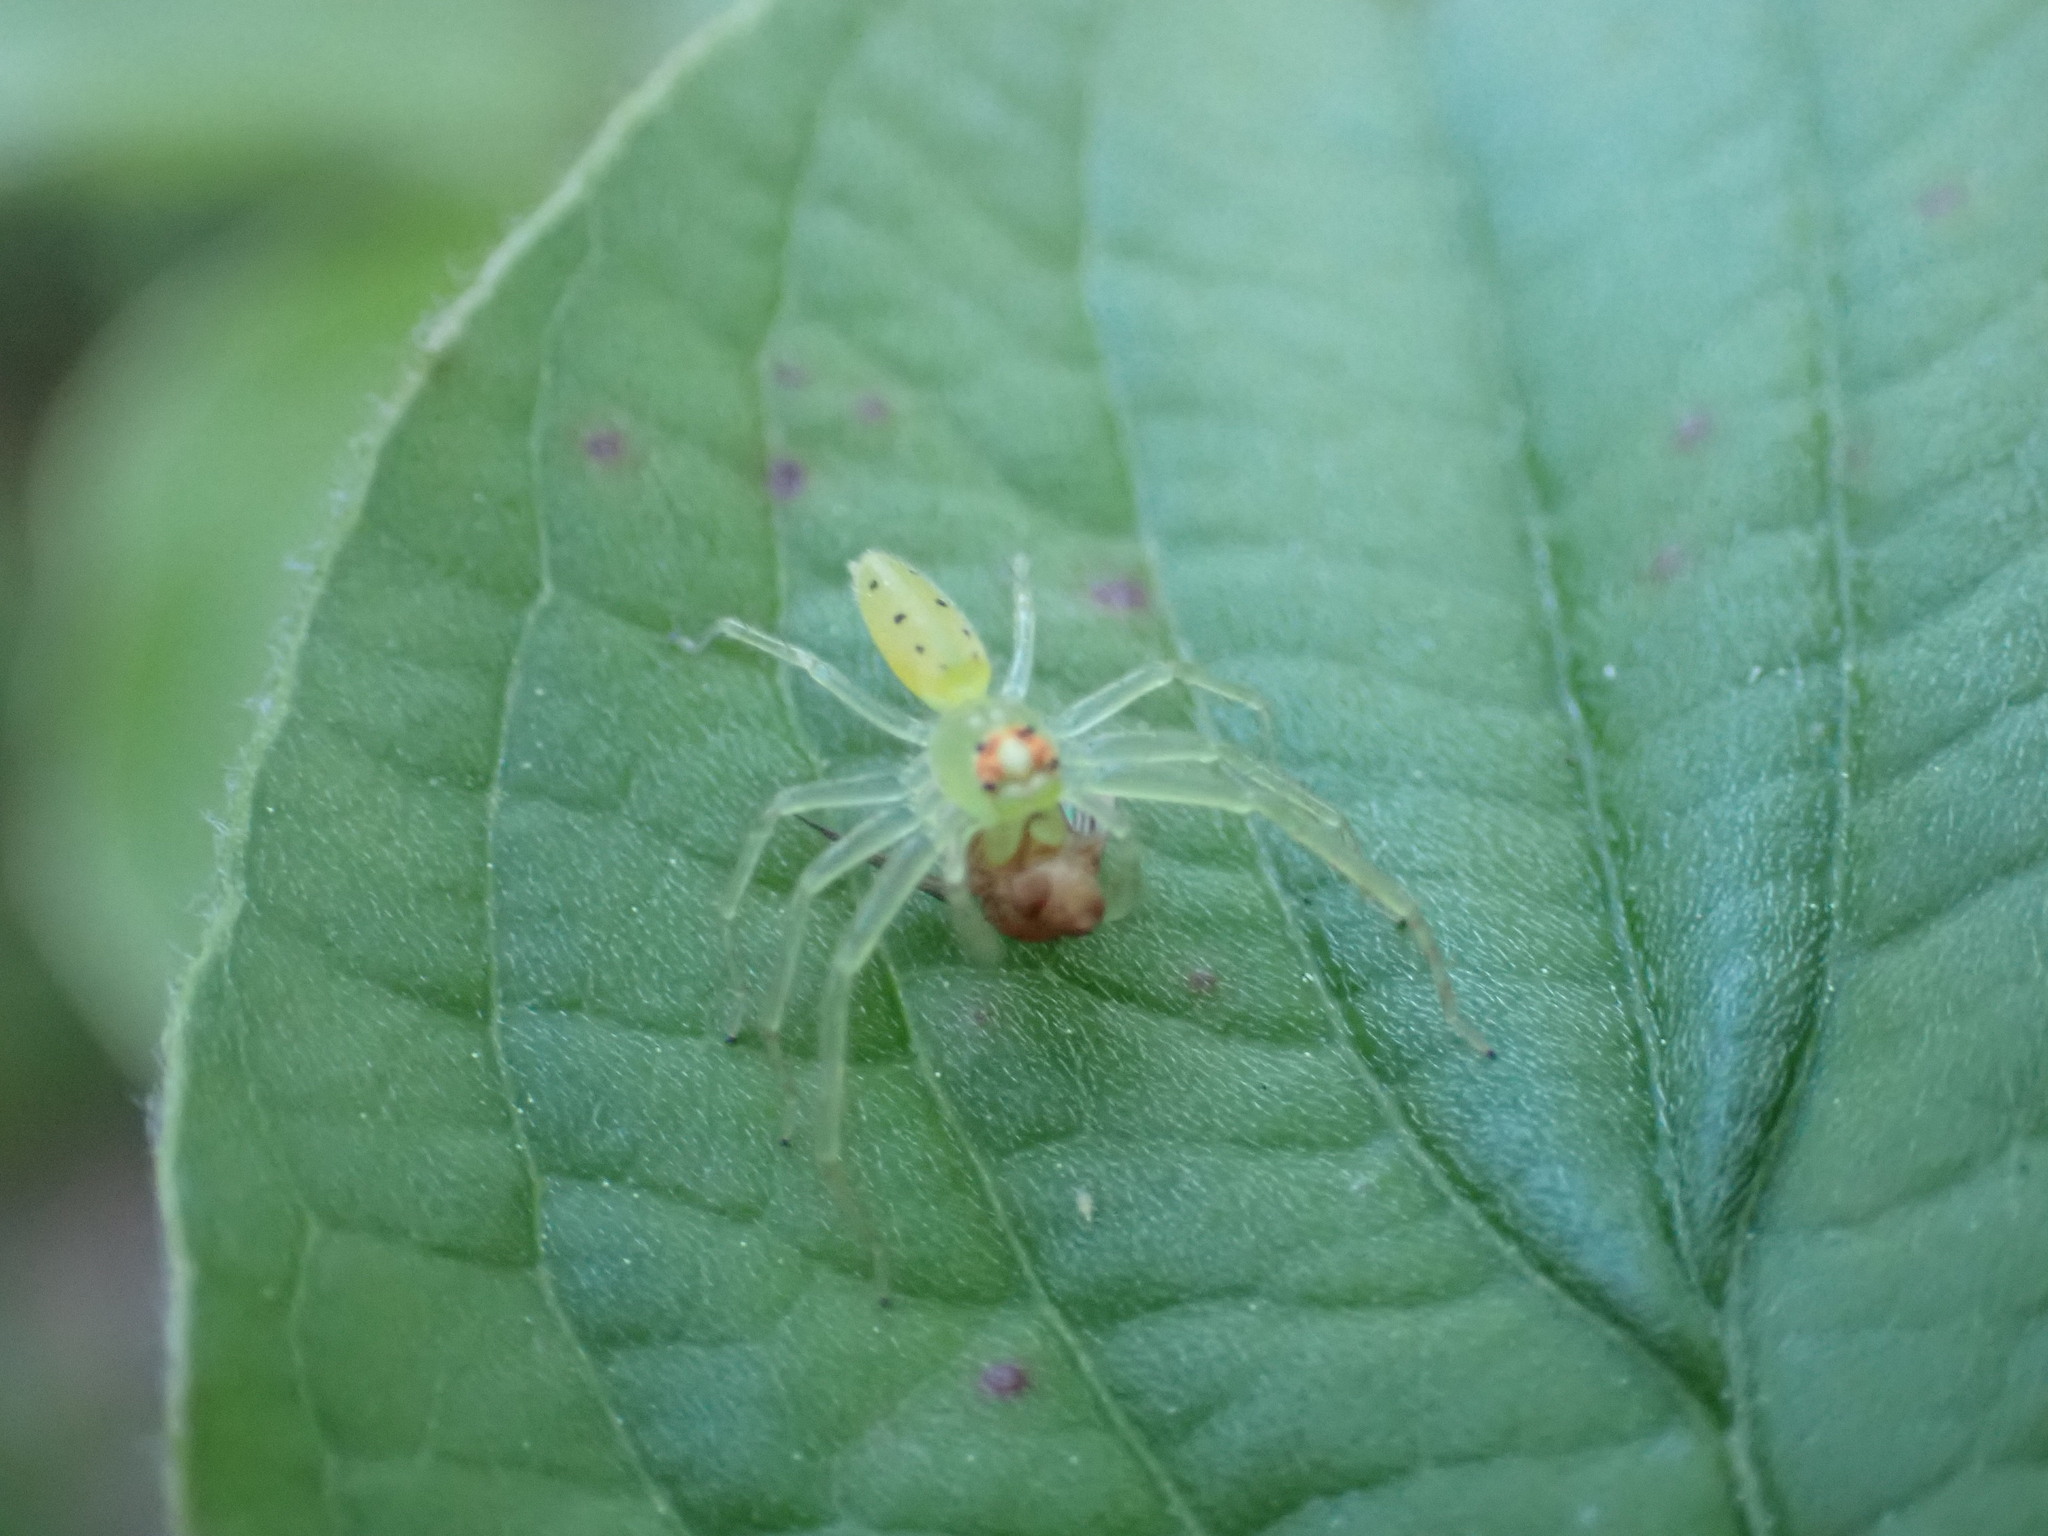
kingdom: Animalia
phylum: Arthropoda
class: Arachnida
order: Araneae
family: Salticidae
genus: Lyssomanes
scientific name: Lyssomanes viridis
